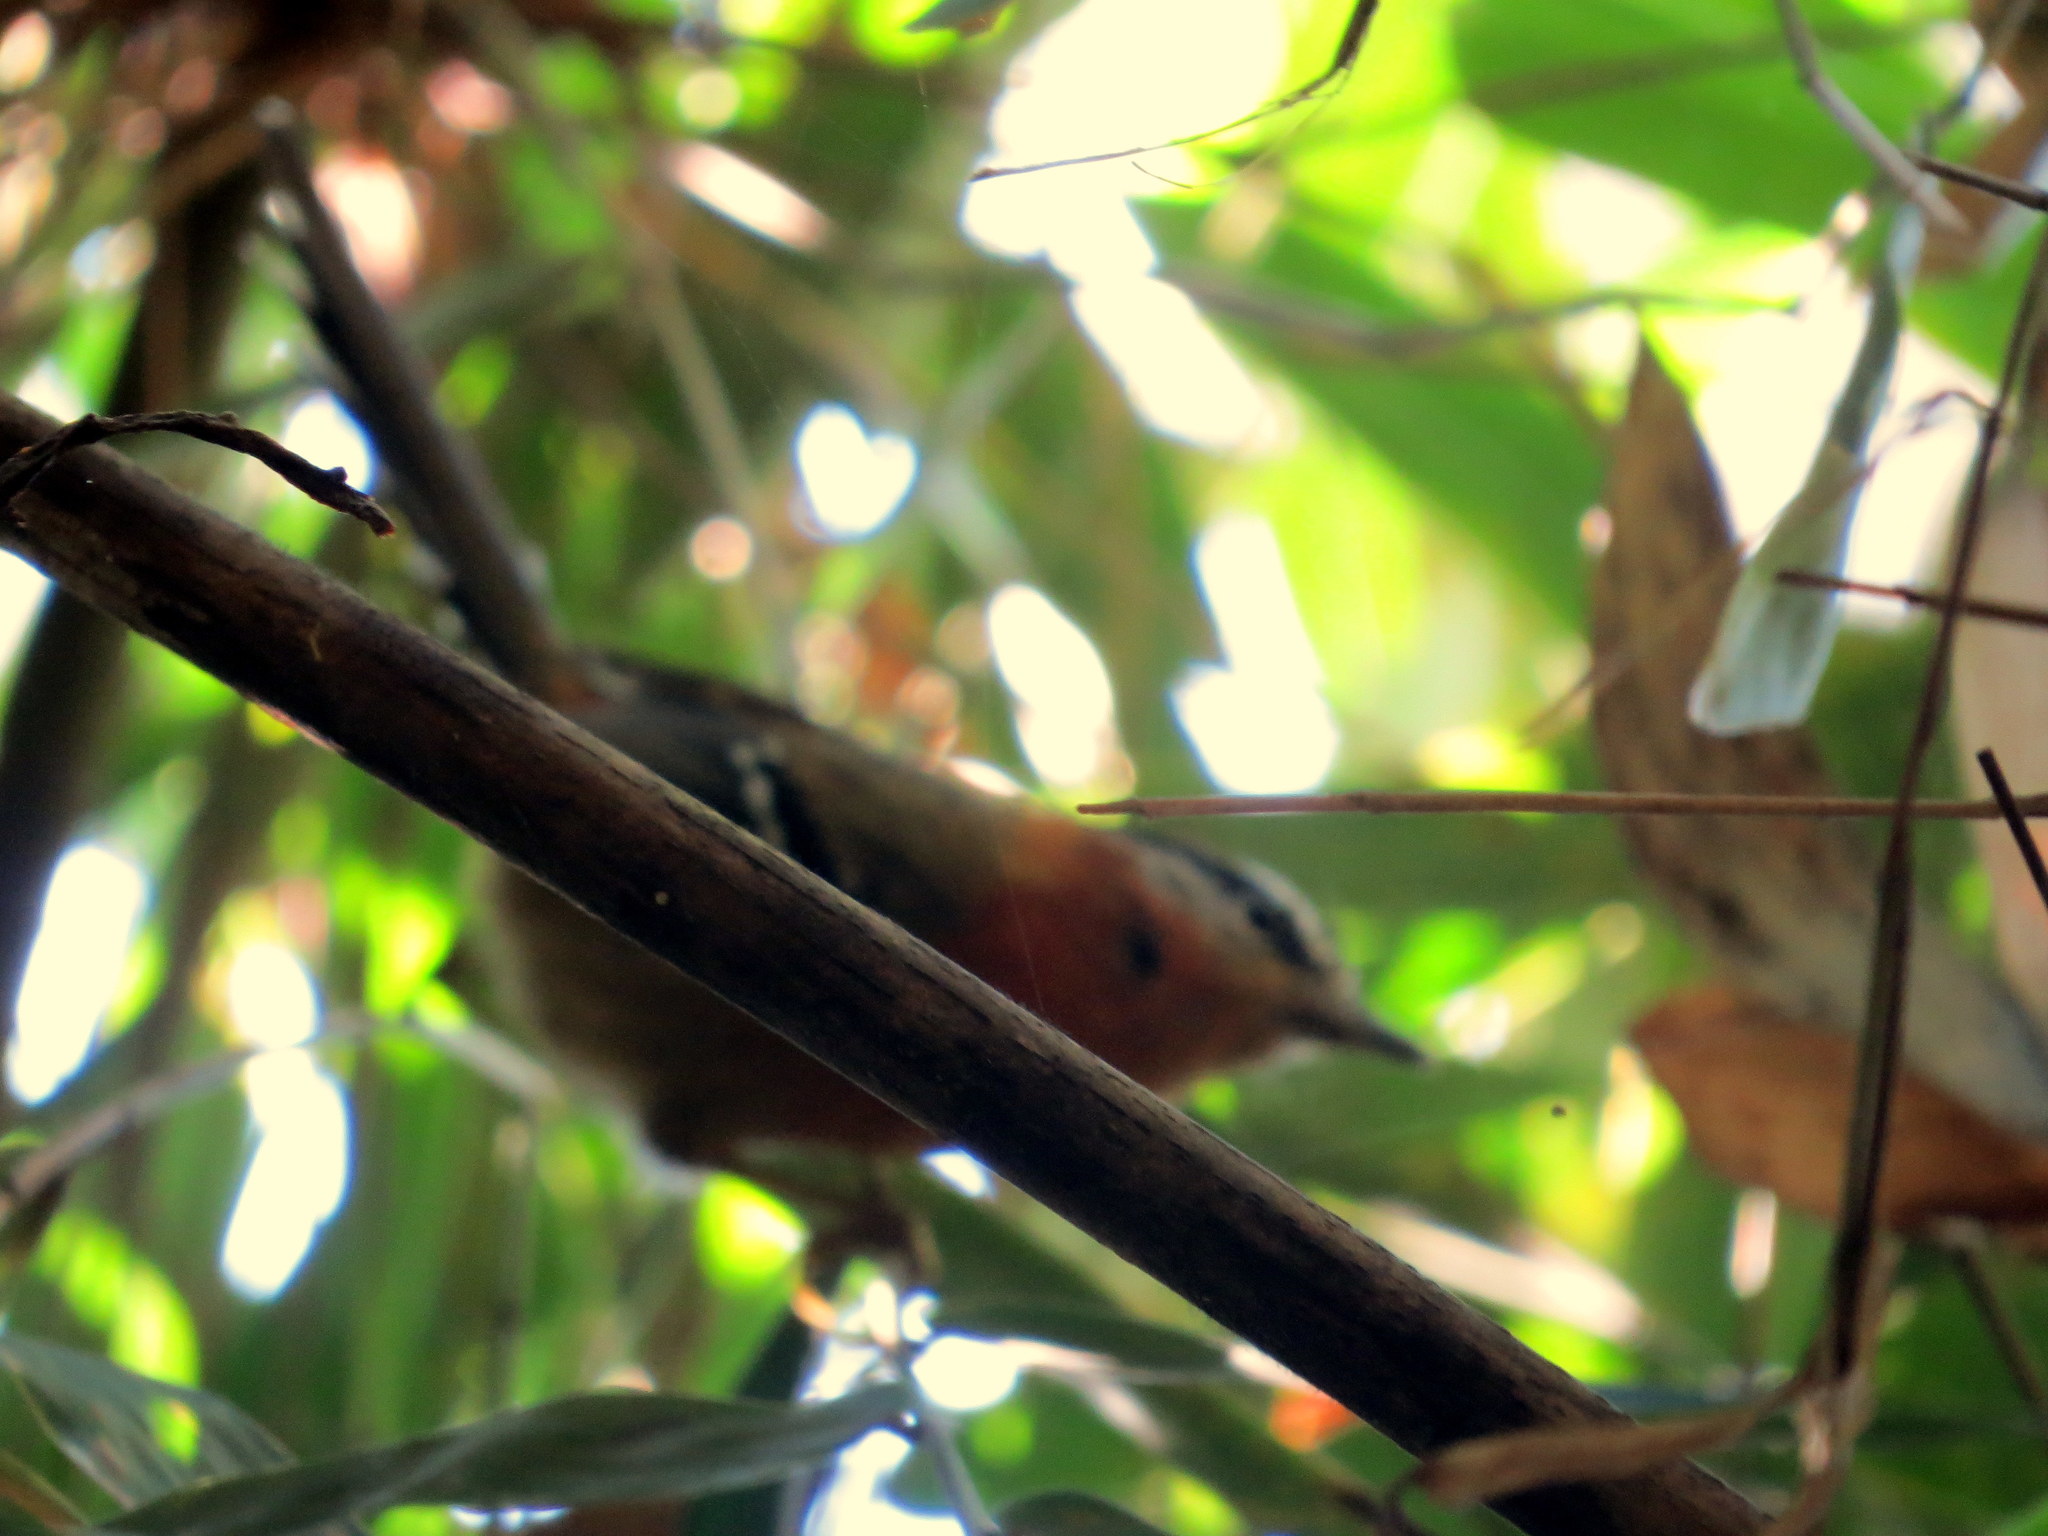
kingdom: Animalia
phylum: Chordata
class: Aves
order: Passeriformes
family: Thamnophilidae
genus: Drymophila
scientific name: Drymophila rubricollis
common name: Bertoni's antbird
